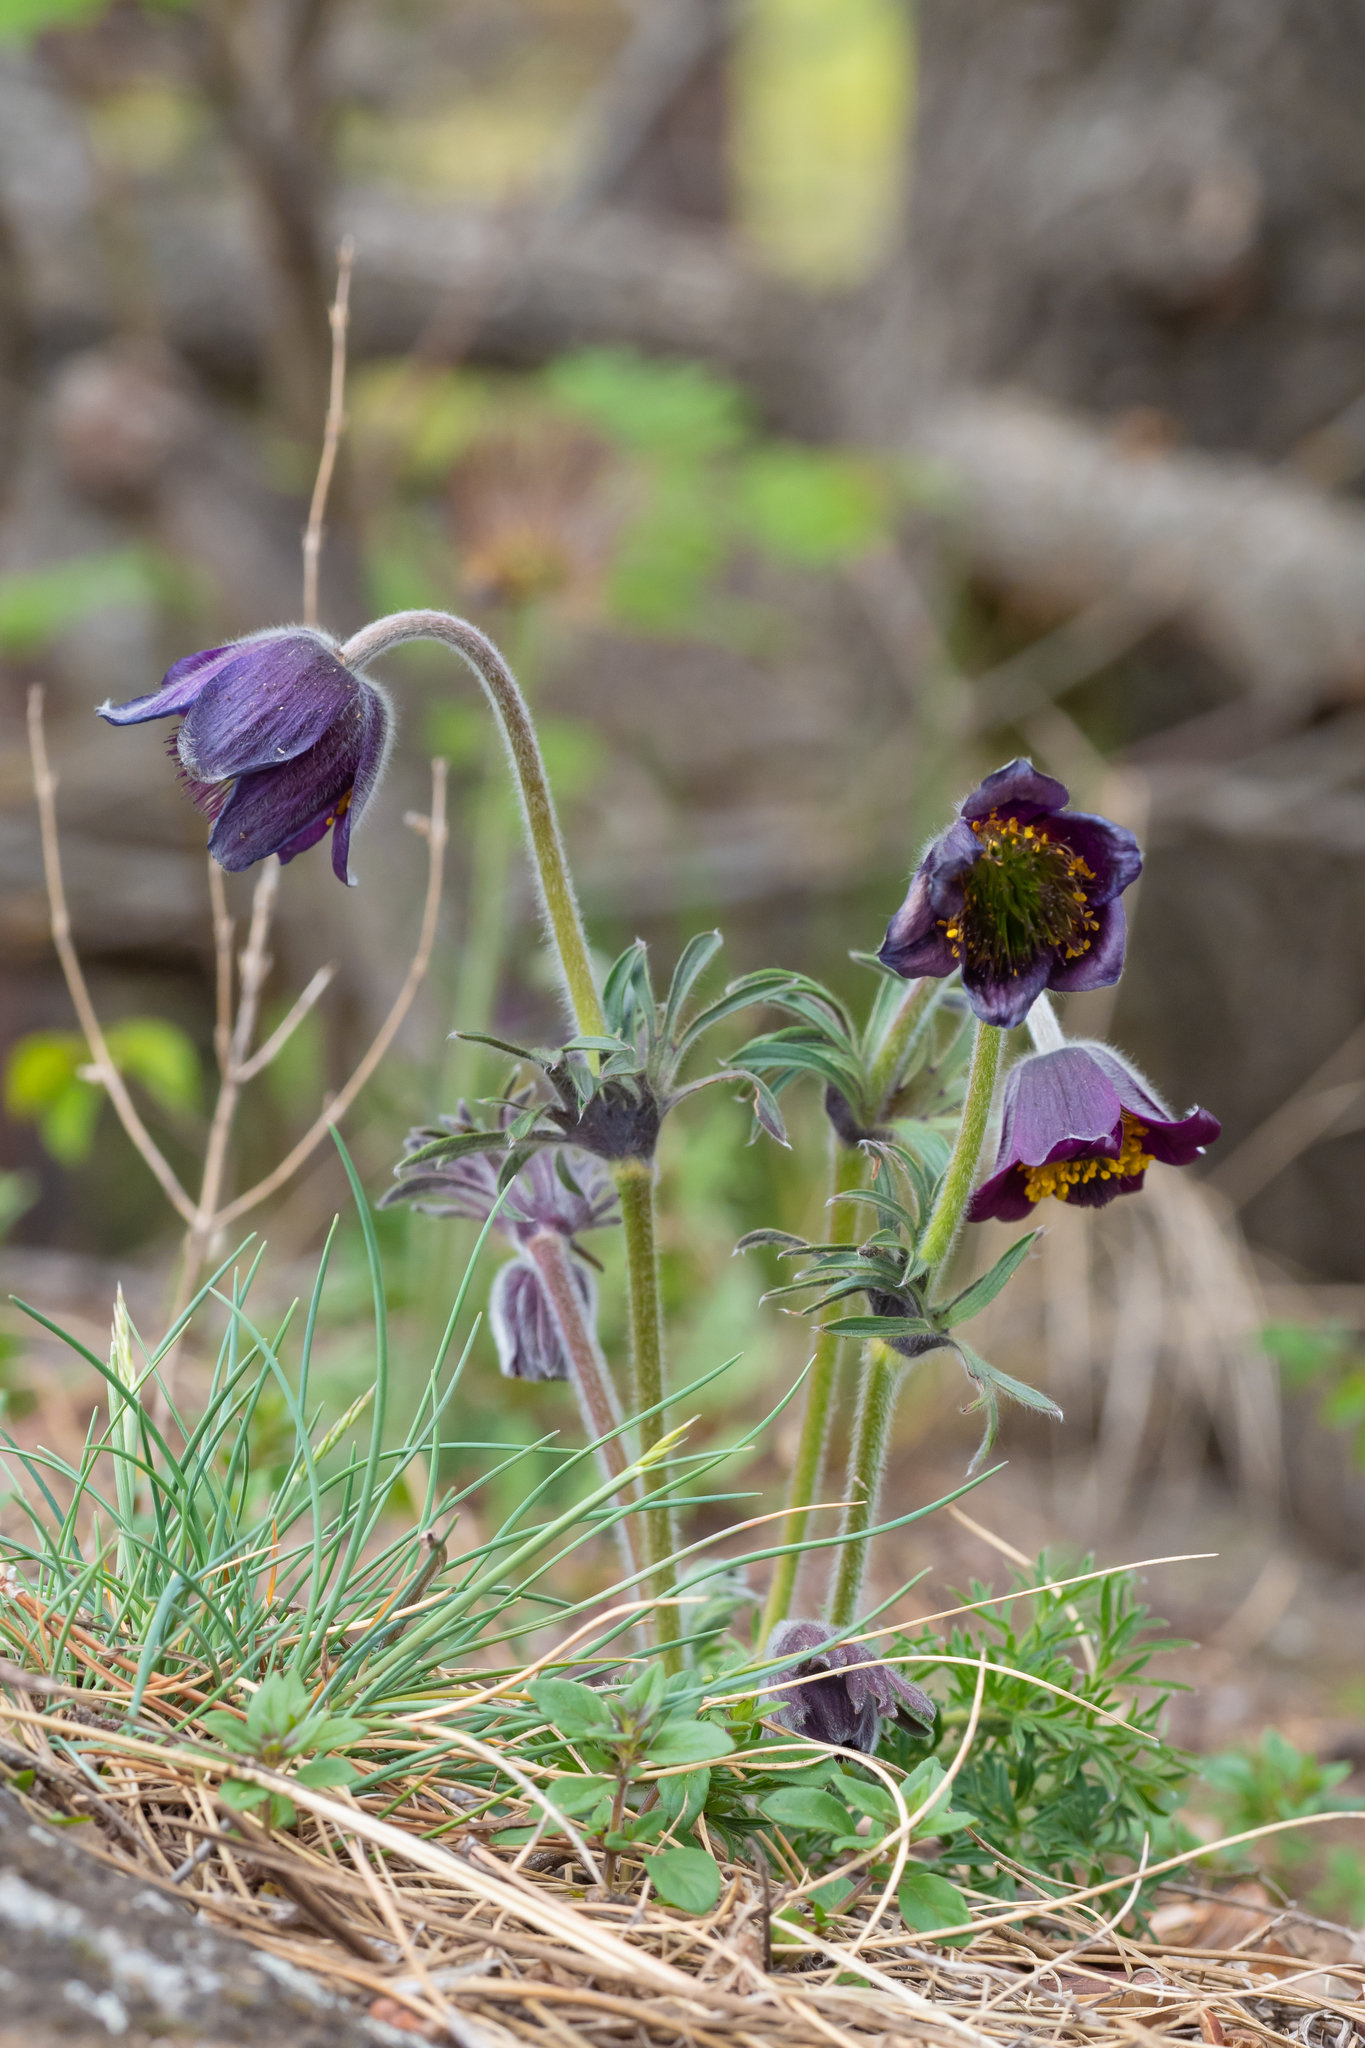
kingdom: Plantae
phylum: Tracheophyta
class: Magnoliopsida
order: Ranunculales
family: Ranunculaceae
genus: Pulsatilla
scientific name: Pulsatilla pratensis
